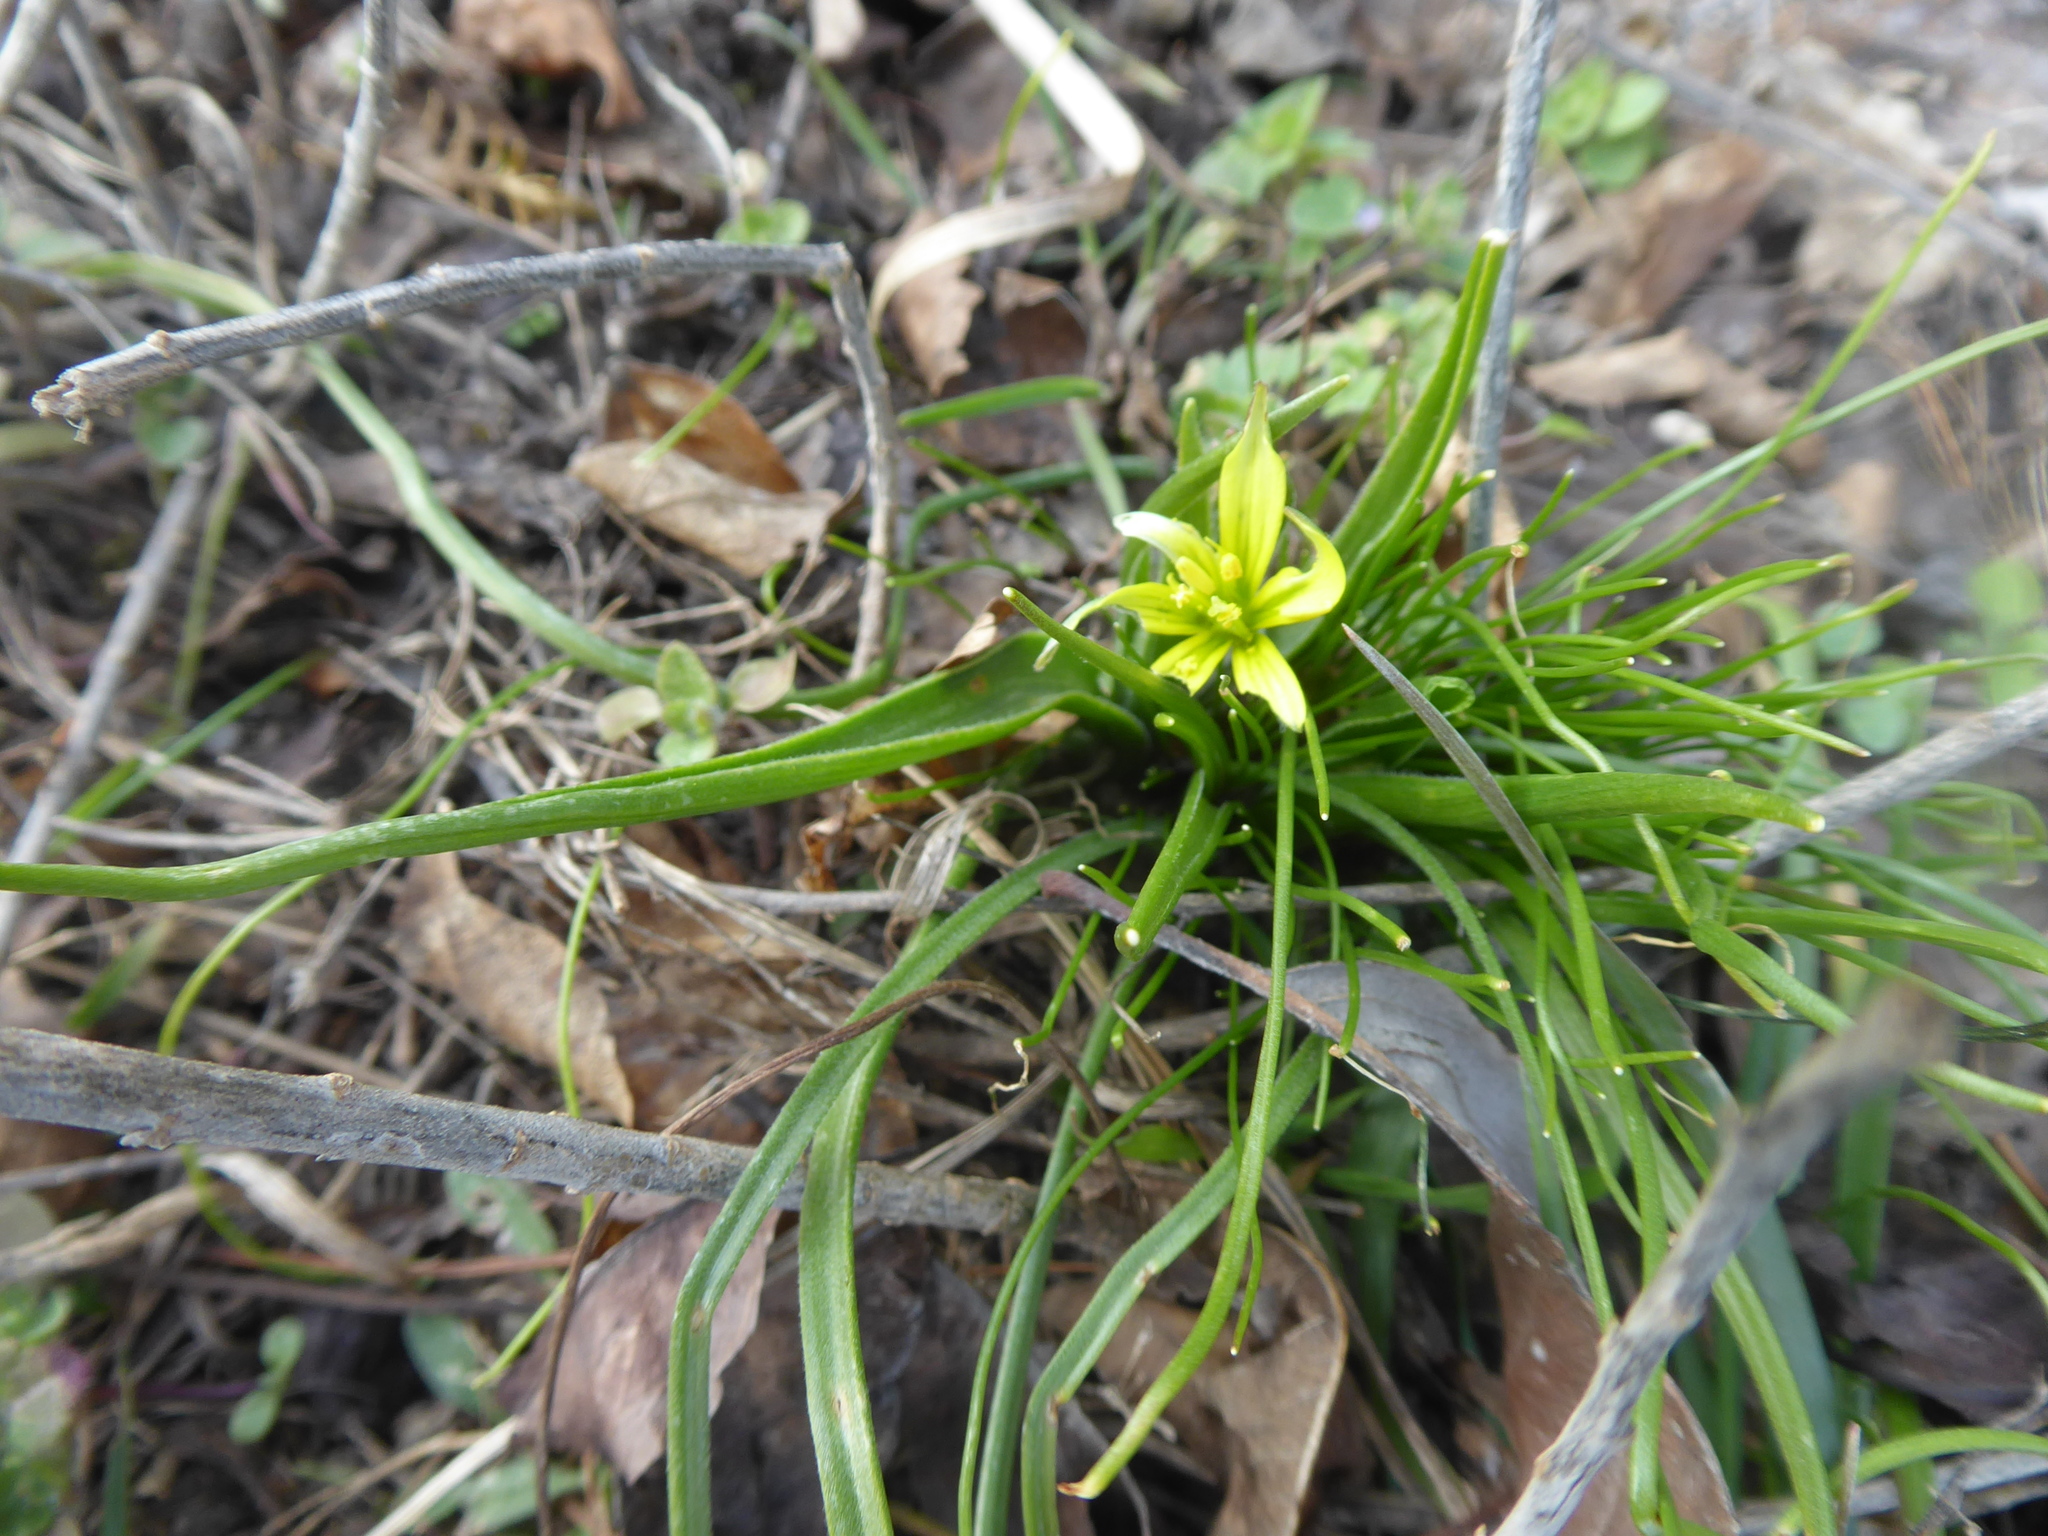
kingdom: Plantae
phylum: Tracheophyta
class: Liliopsida
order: Liliales
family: Liliaceae
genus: Gagea
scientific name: Gagea villosa
